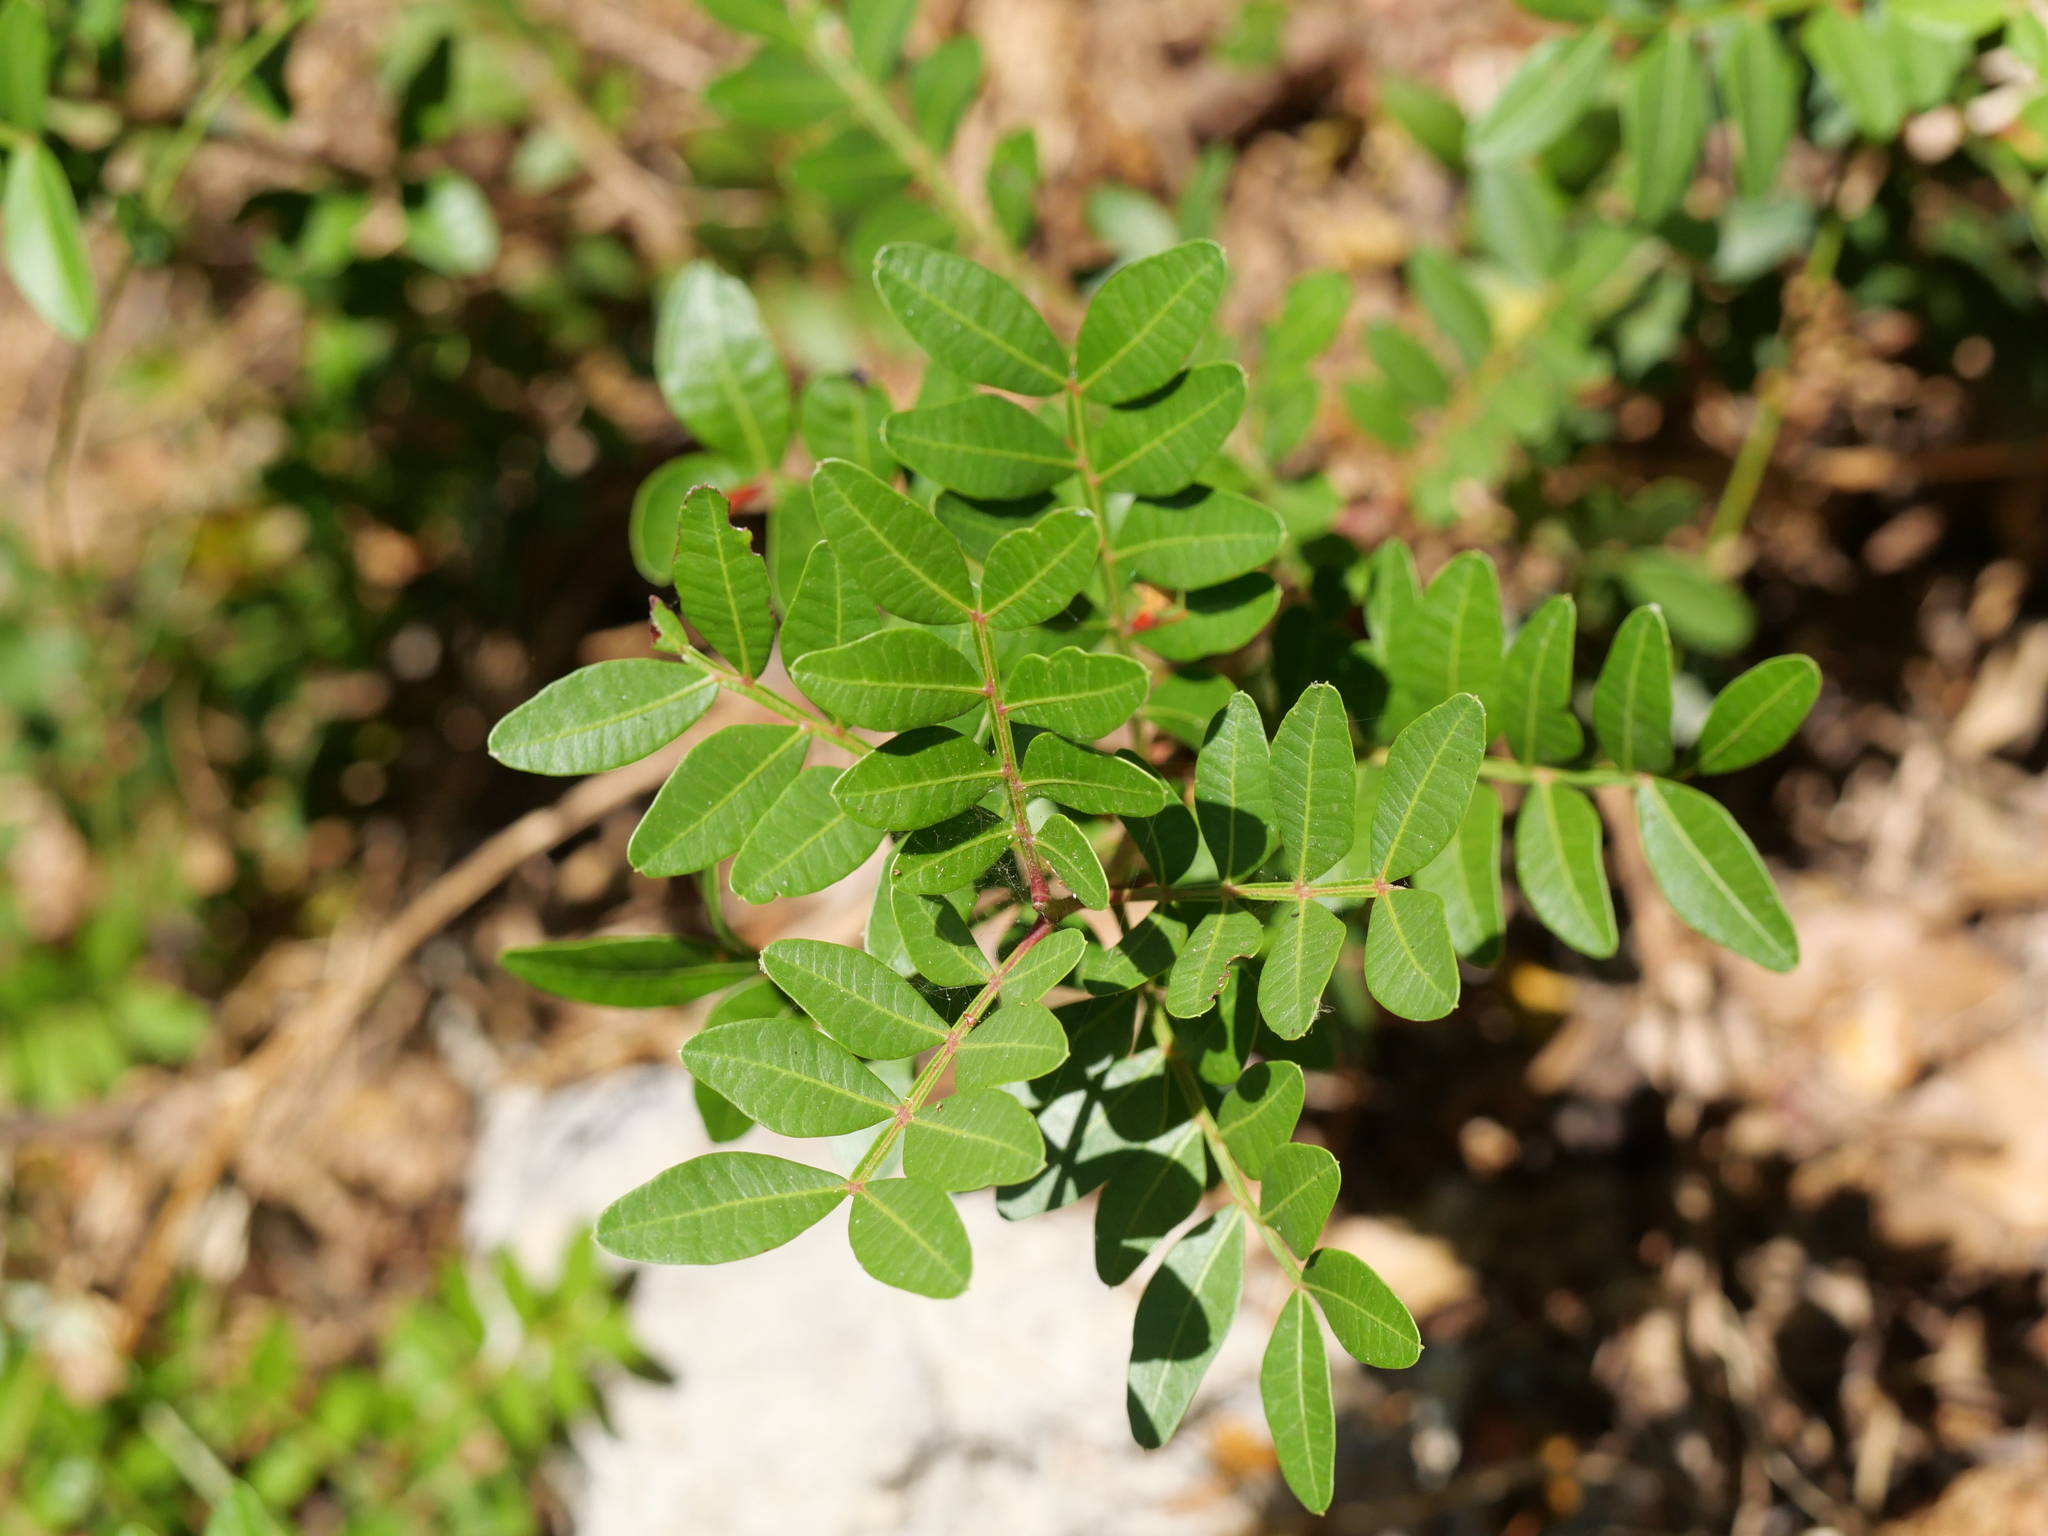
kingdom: Plantae
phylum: Tracheophyta
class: Magnoliopsida
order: Sapindales
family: Anacardiaceae
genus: Pistacia
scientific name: Pistacia lentiscus
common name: Lentisk
